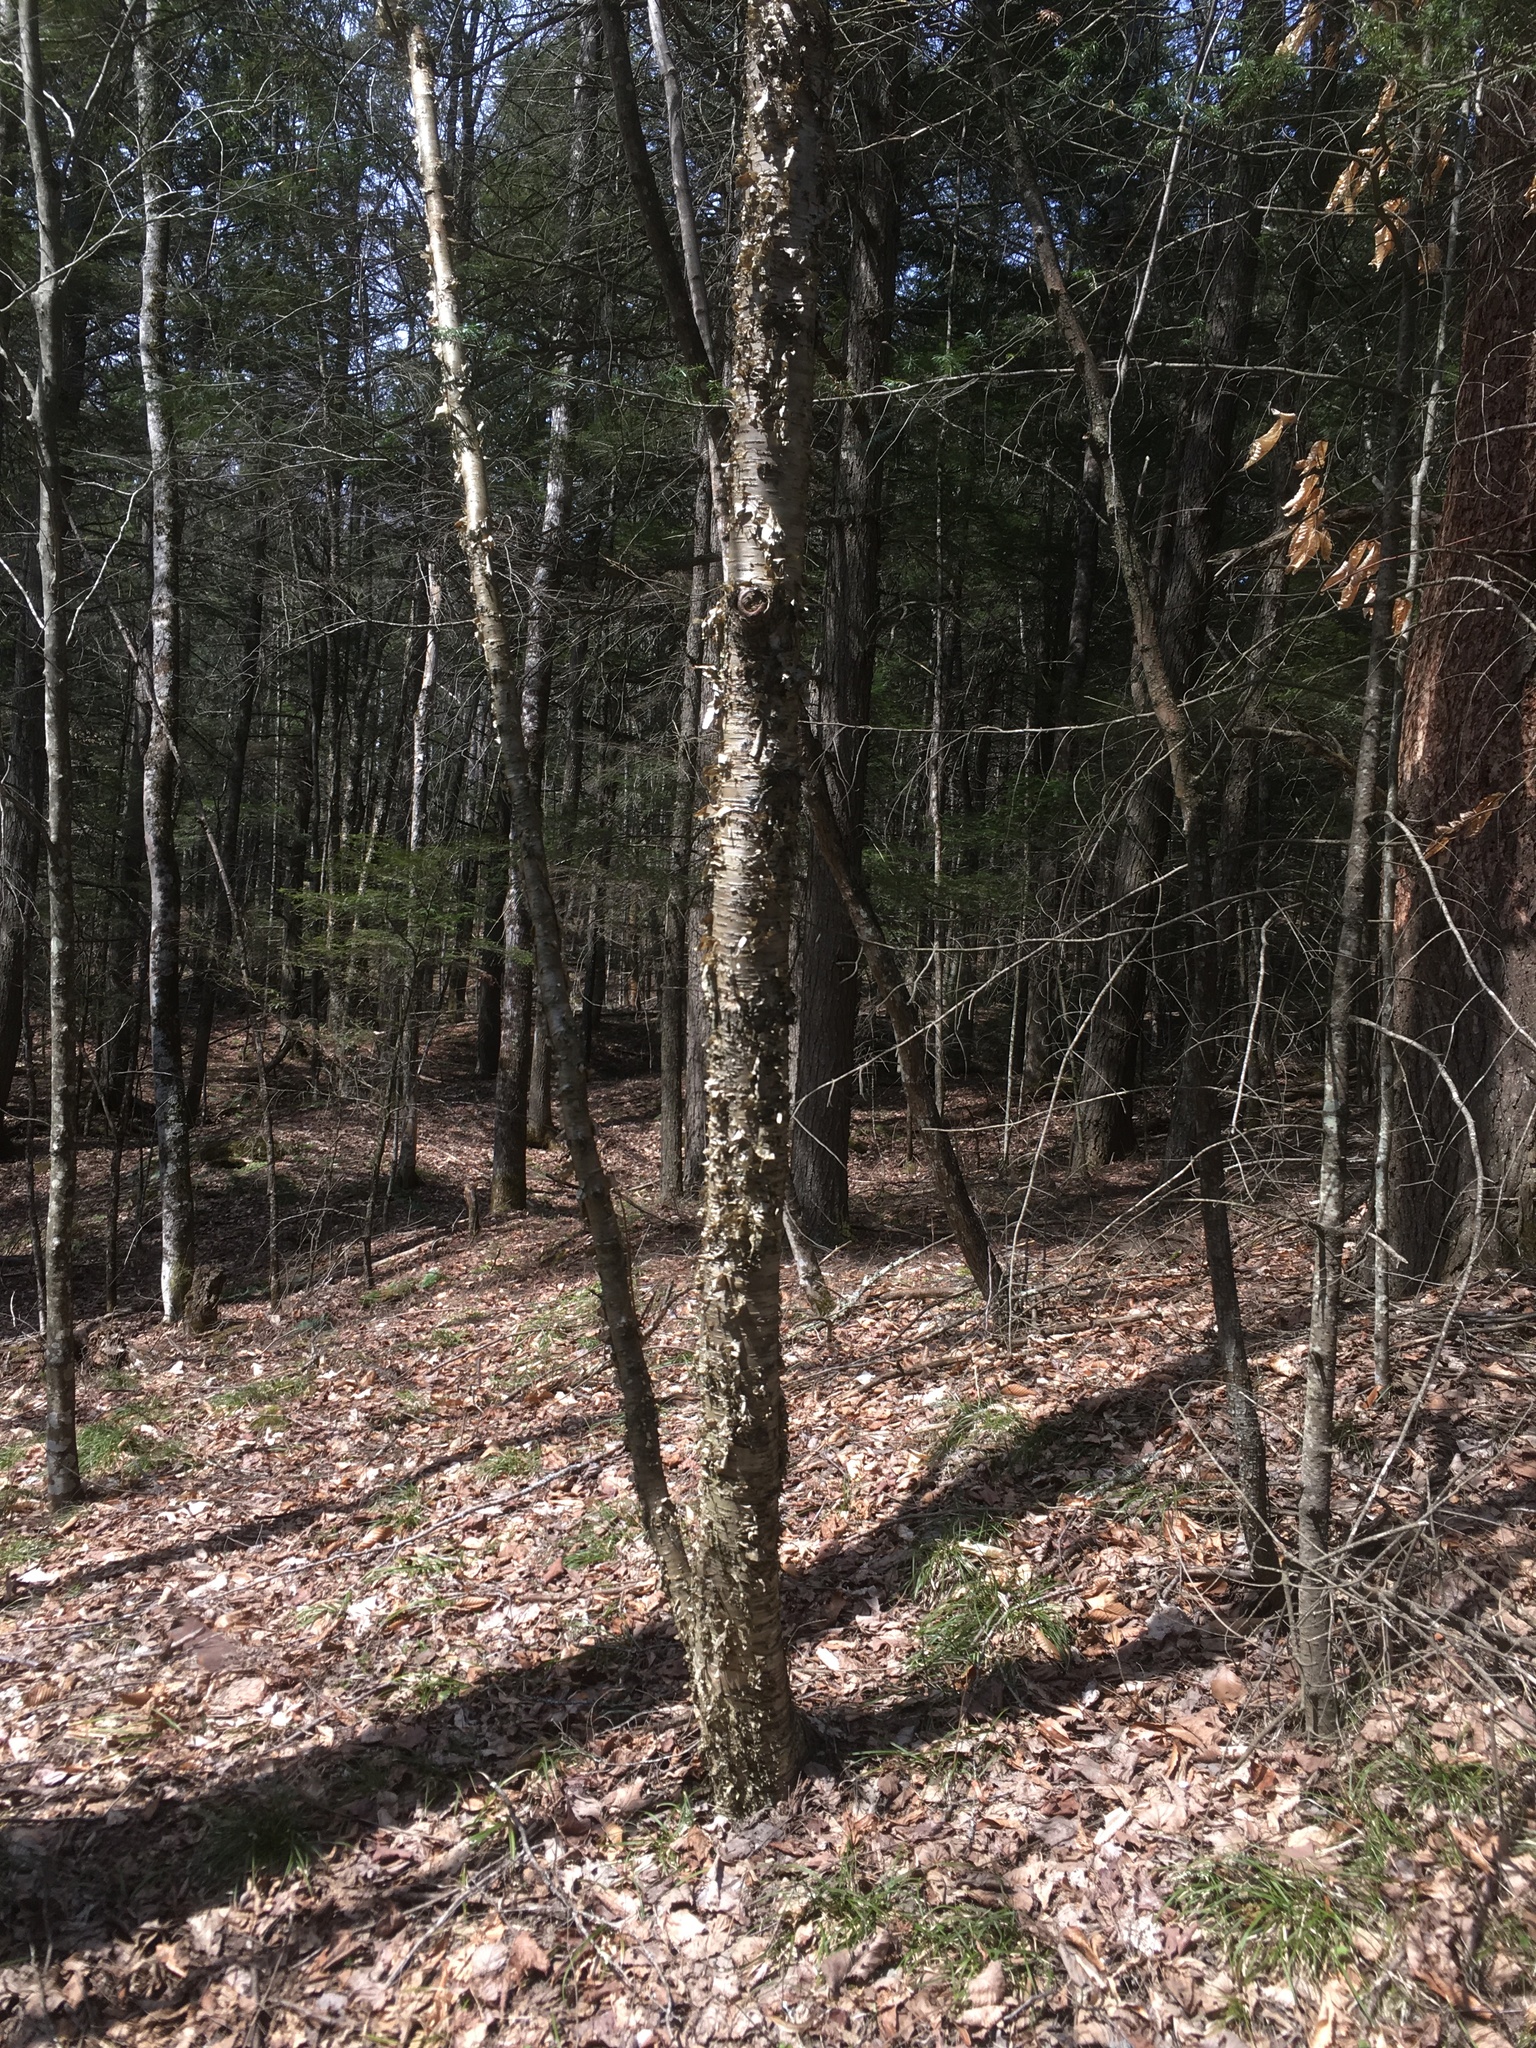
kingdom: Plantae
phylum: Tracheophyta
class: Magnoliopsida
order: Fagales
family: Betulaceae
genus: Betula
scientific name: Betula alleghaniensis
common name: Yellow birch
